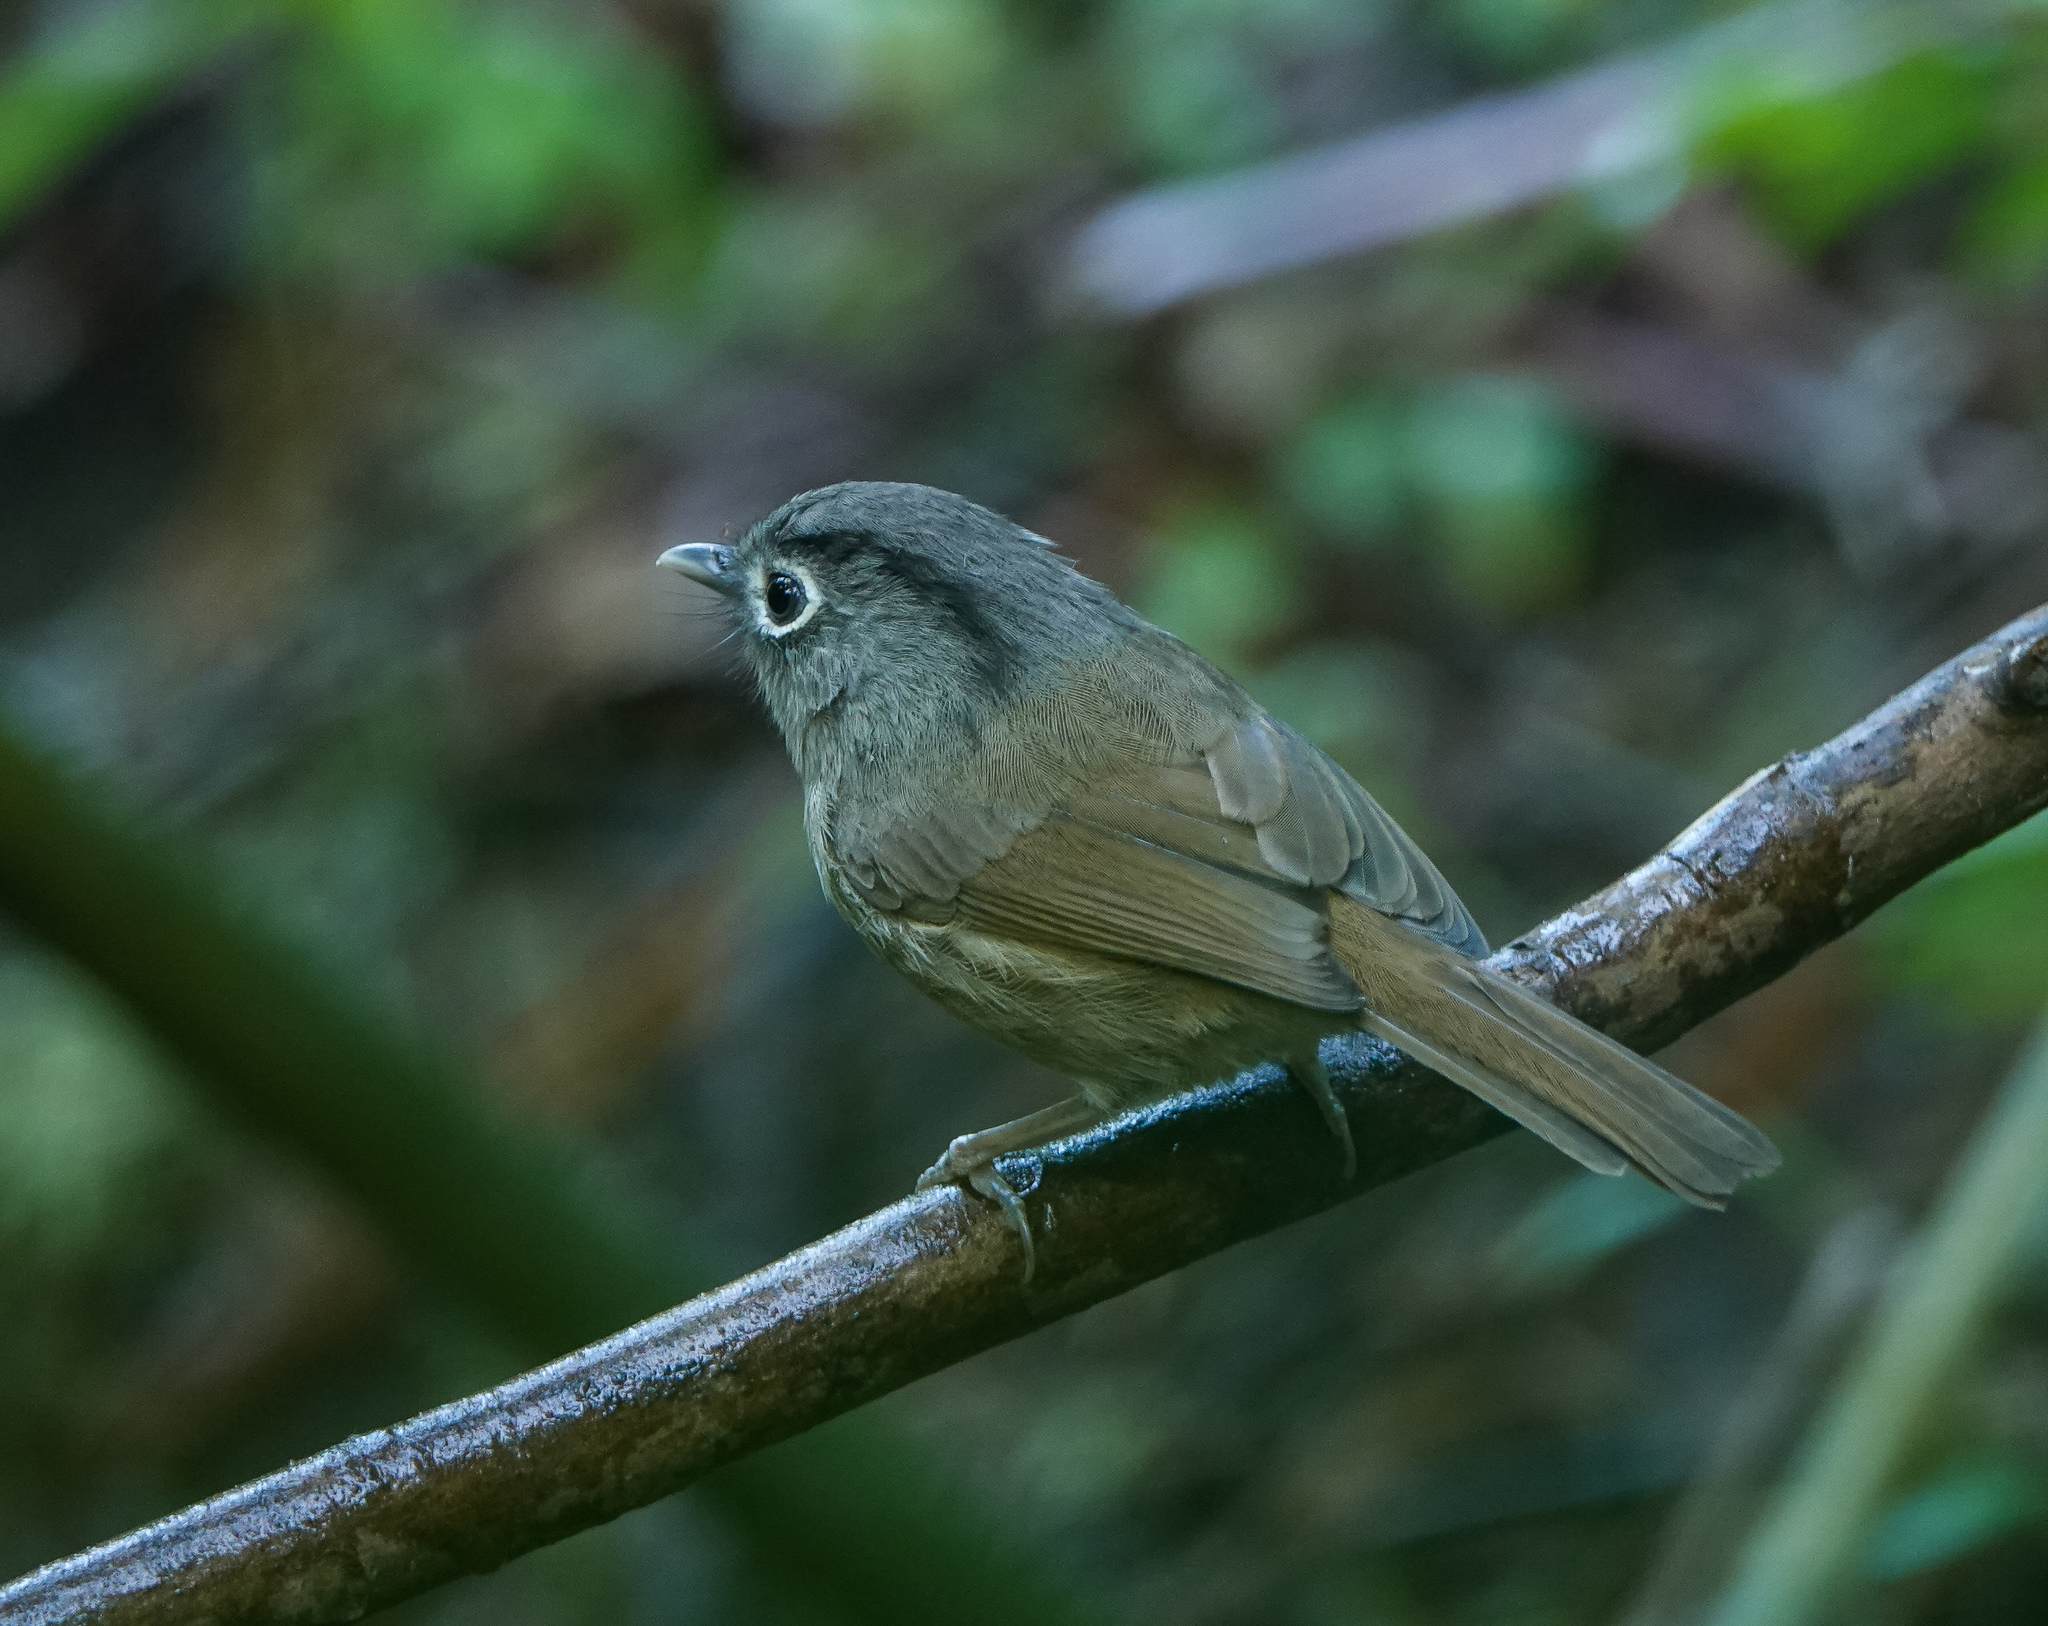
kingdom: Animalia
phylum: Chordata
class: Aves
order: Passeriformes
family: Pellorneidae
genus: Alcippe
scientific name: Alcippe nipalensis
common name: Nepal fulvetta
